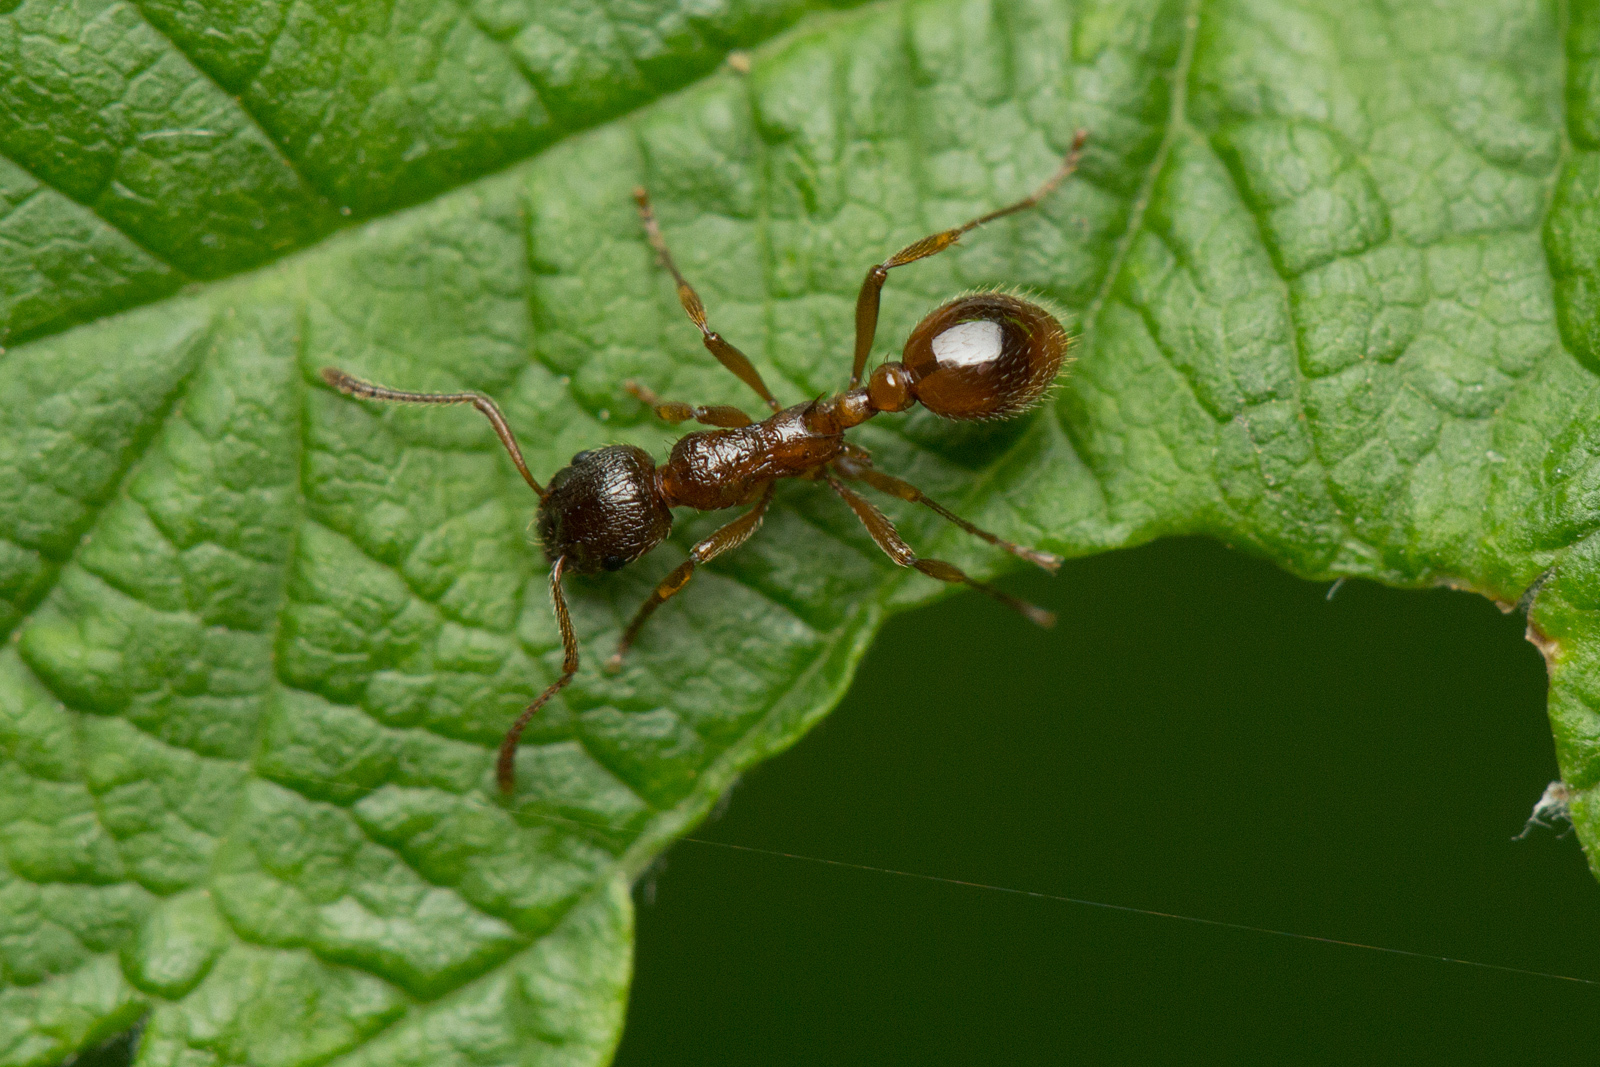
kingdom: Animalia
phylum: Arthropoda
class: Insecta
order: Hymenoptera
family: Formicidae
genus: Myrmica
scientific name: Myrmica rubra
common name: European fire ant
